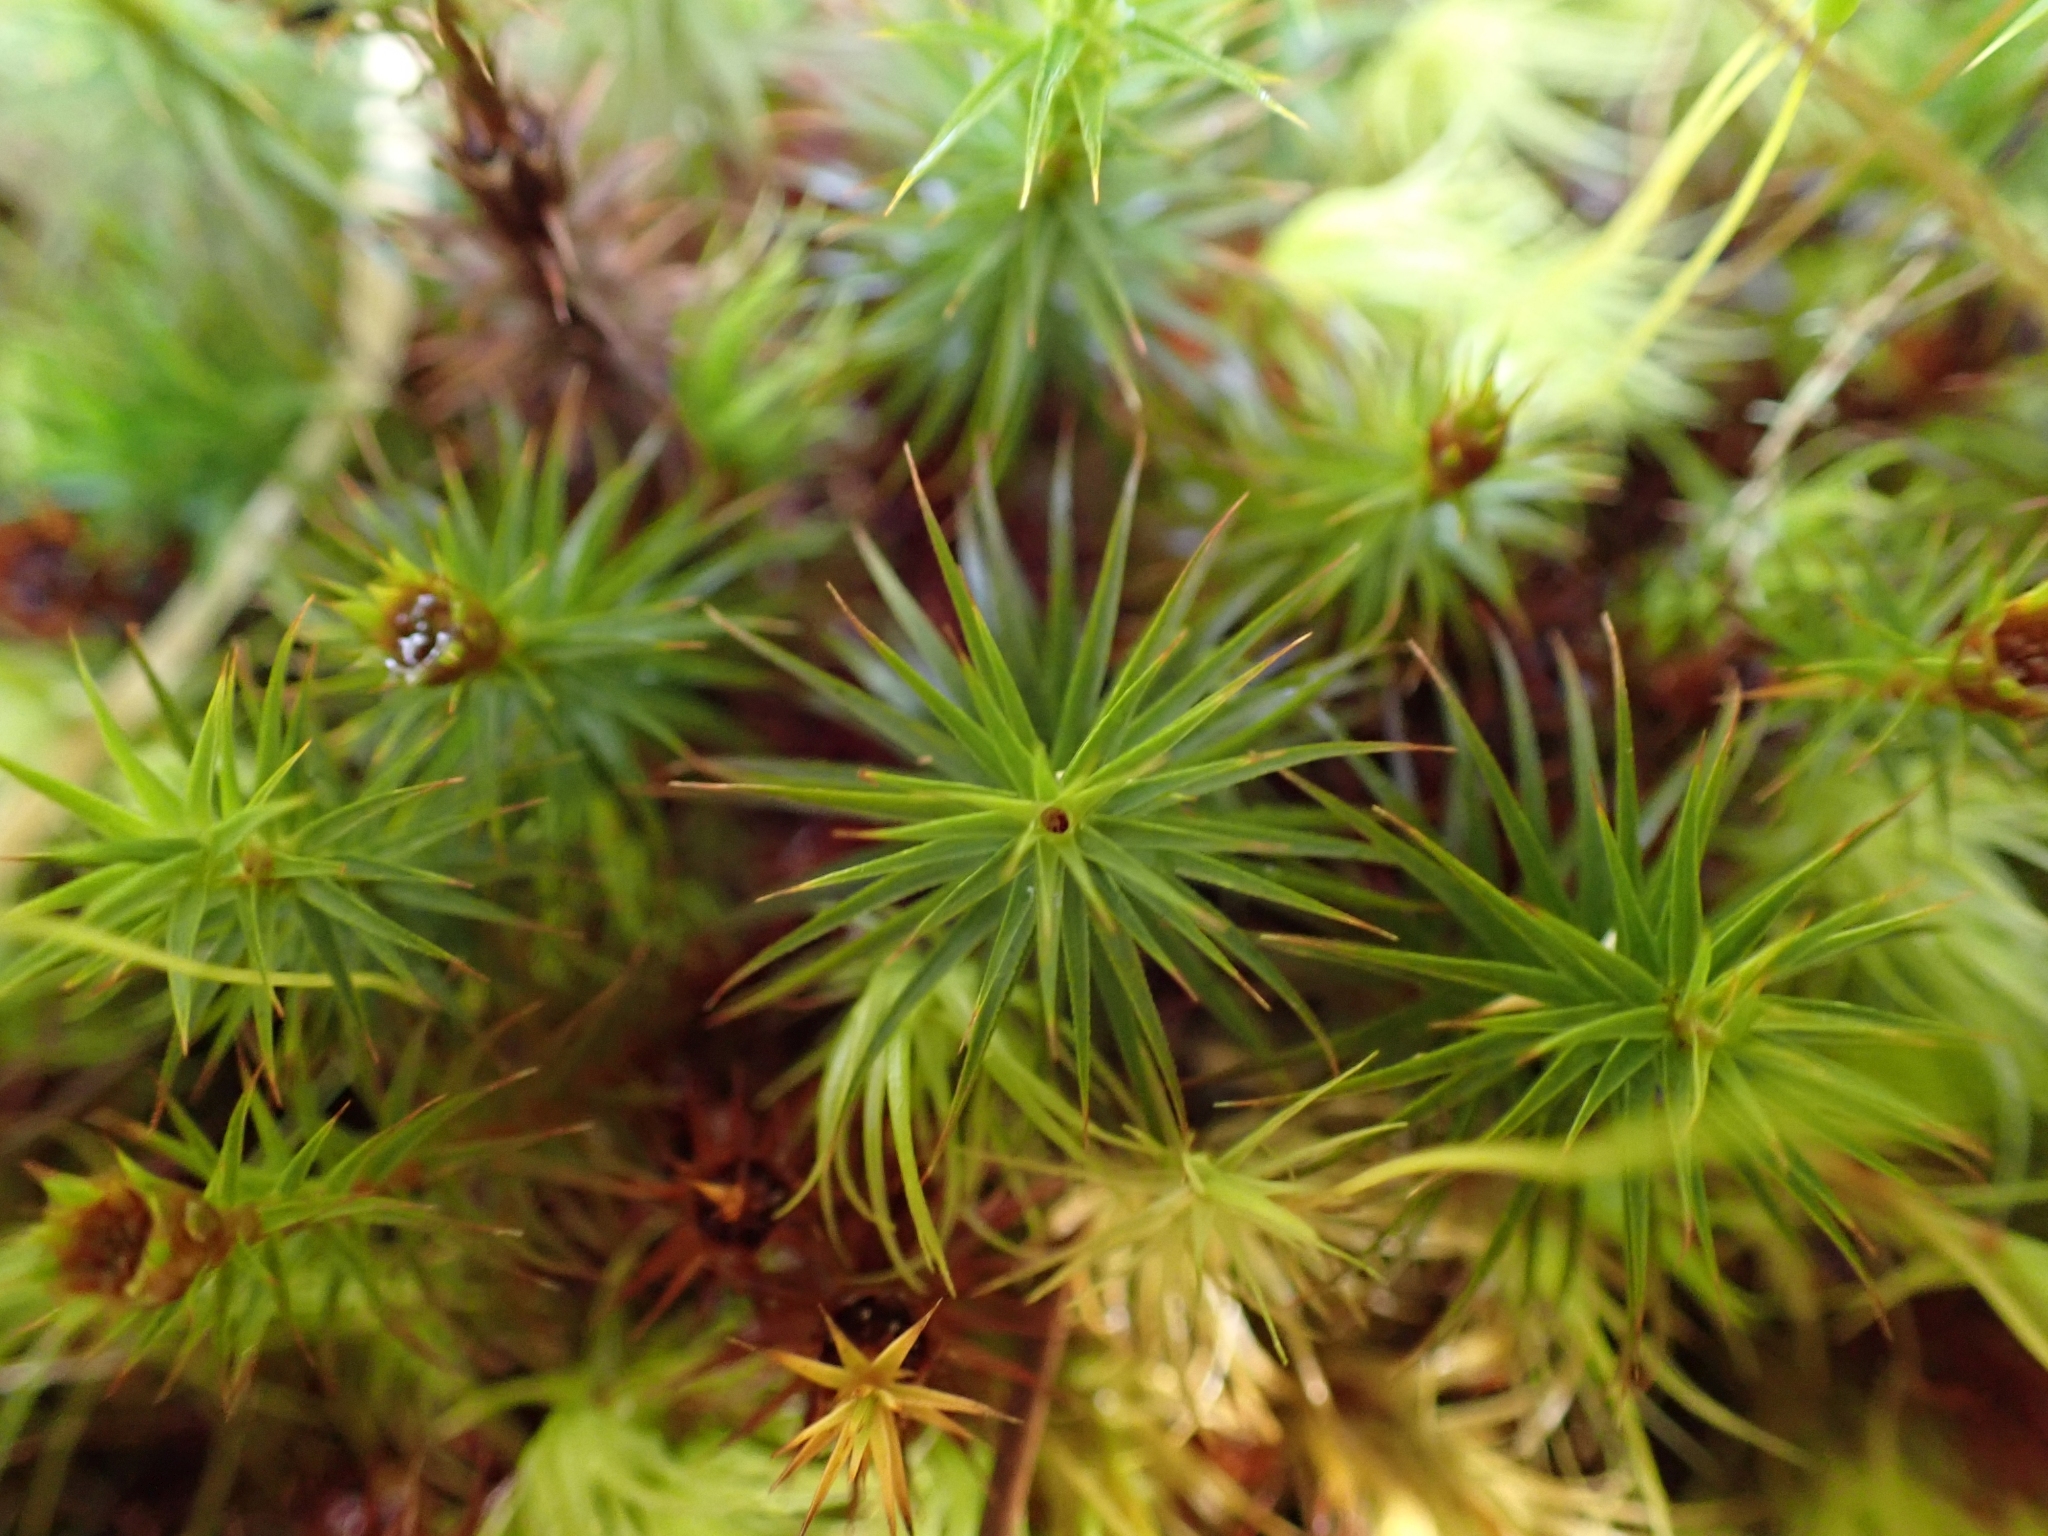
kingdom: Plantae
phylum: Bryophyta
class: Polytrichopsida
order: Polytrichales
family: Polytrichaceae
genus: Polytrichum
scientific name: Polytrichum commune
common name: Common haircap
